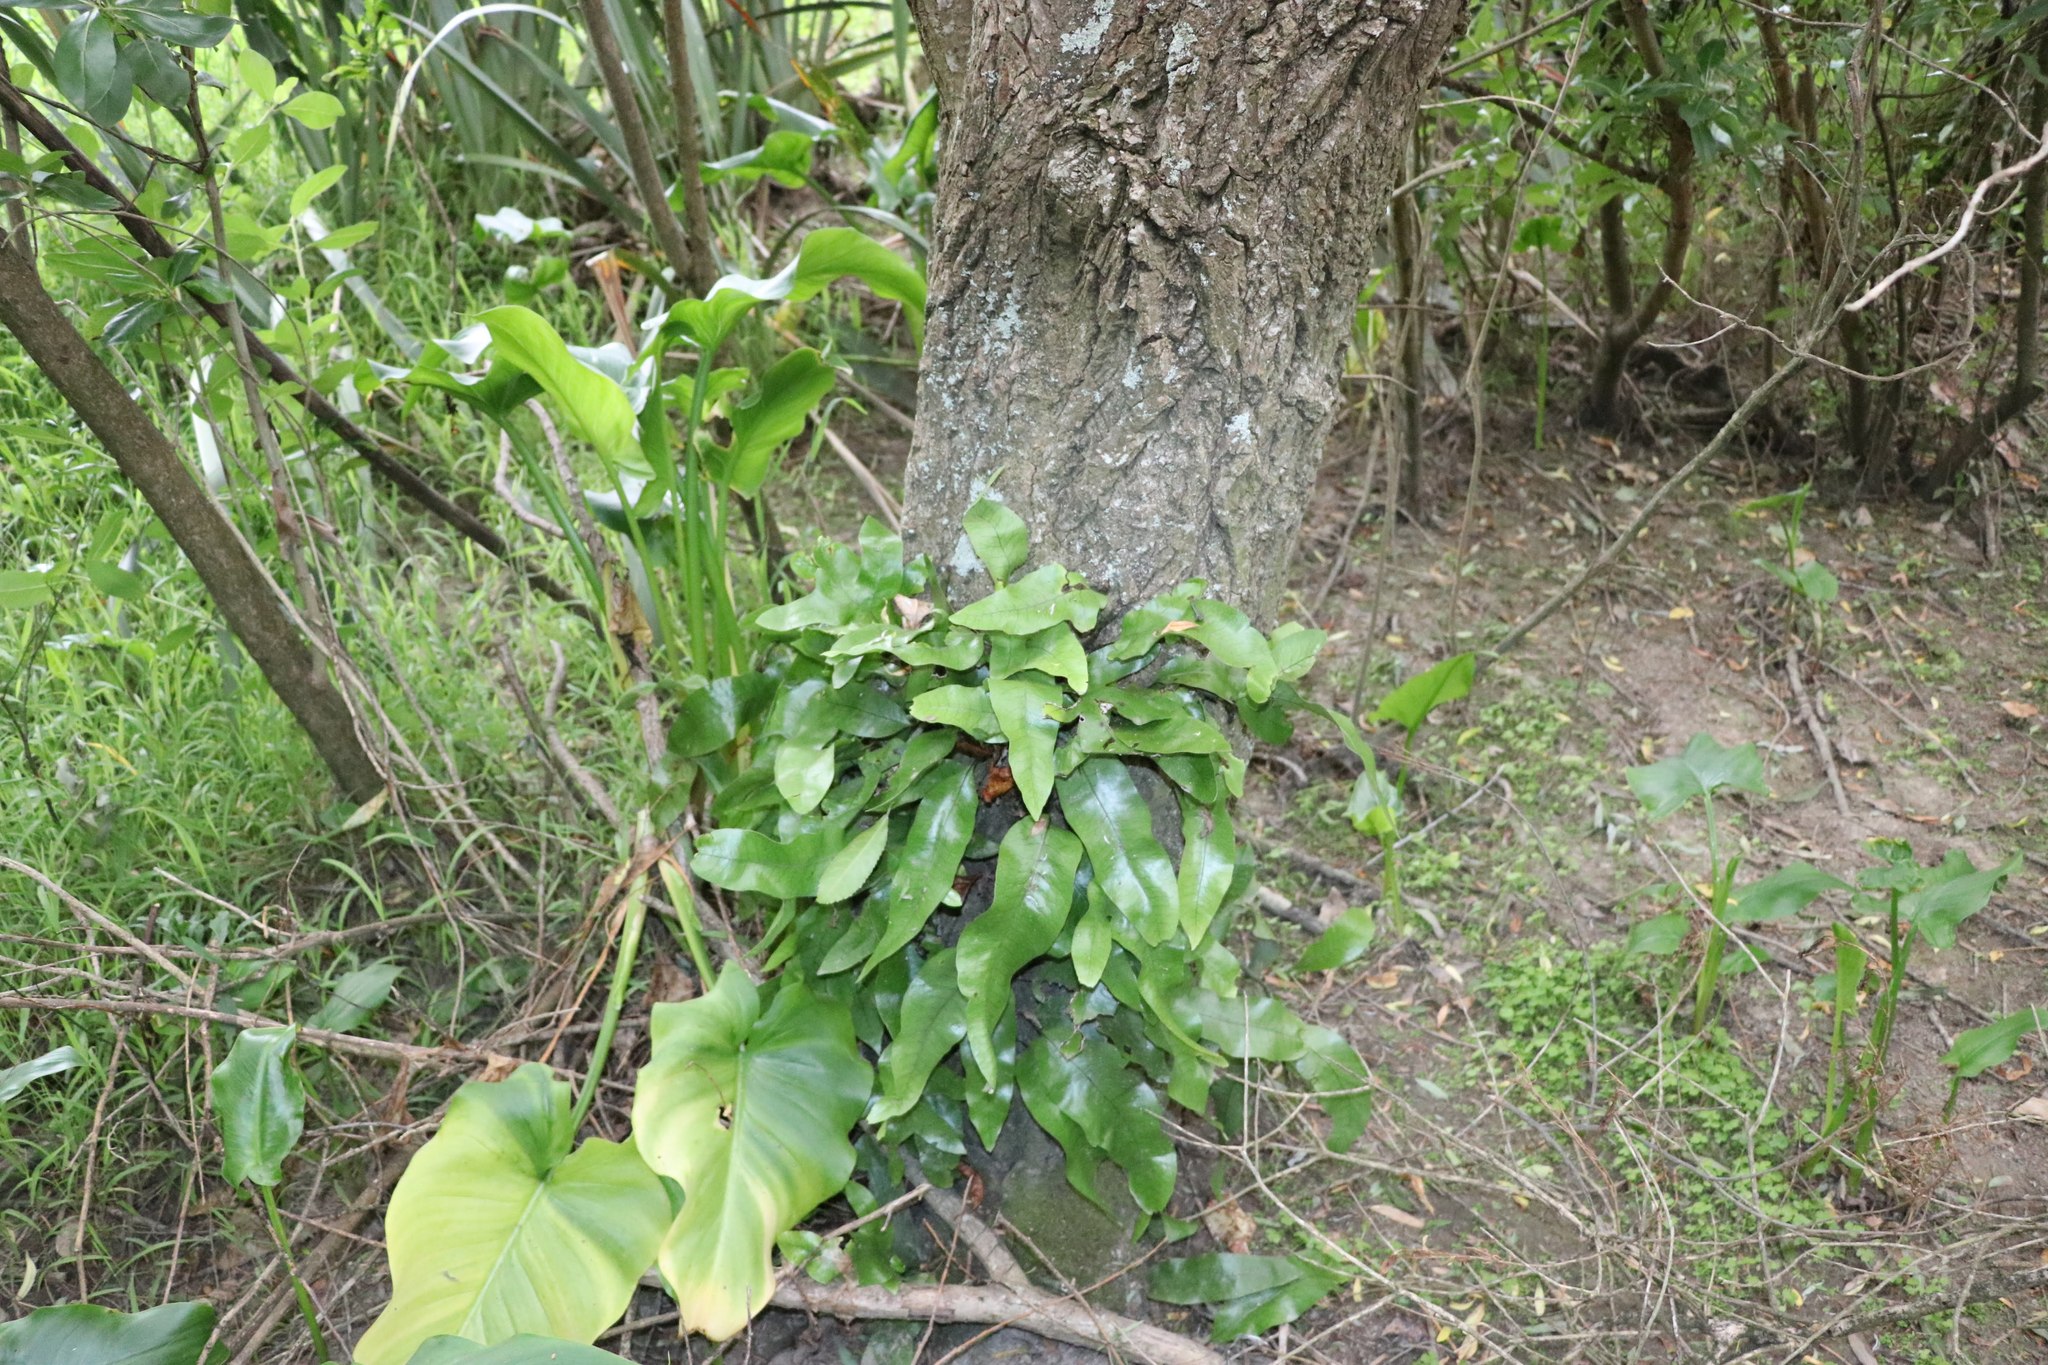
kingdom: Plantae
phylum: Tracheophyta
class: Liliopsida
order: Alismatales
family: Araceae
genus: Zantedeschia
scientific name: Zantedeschia aethiopica
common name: Altar-lily
